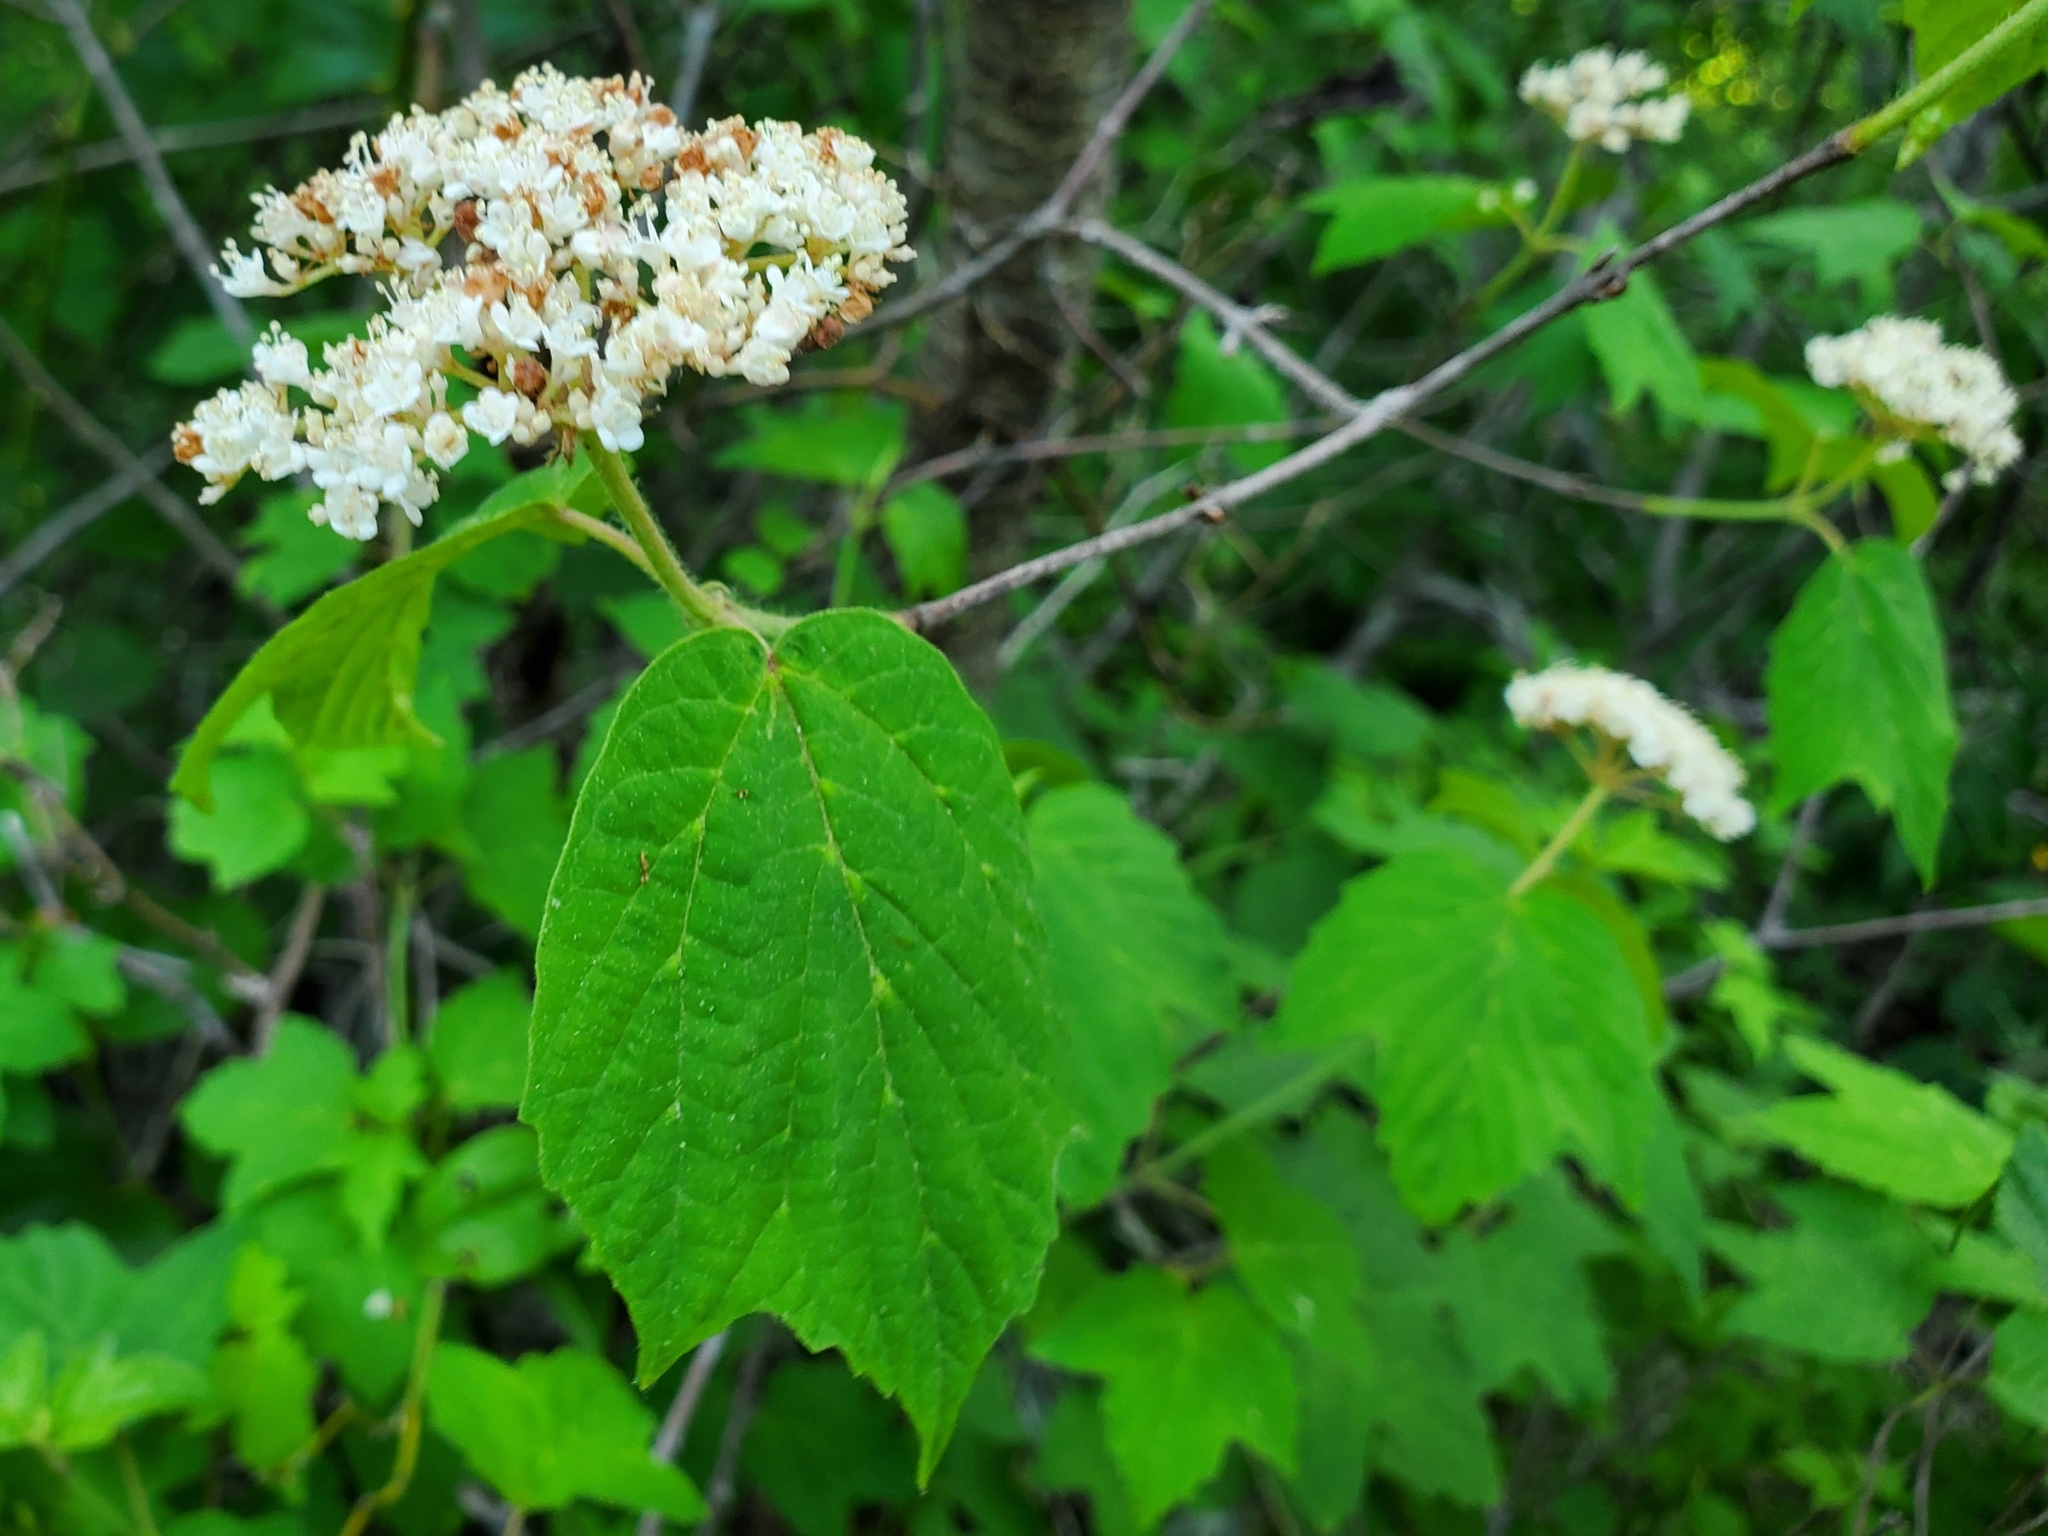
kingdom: Plantae
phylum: Tracheophyta
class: Magnoliopsida
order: Dipsacales
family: Viburnaceae
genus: Viburnum
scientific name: Viburnum acerifolium
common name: Dockmackie
